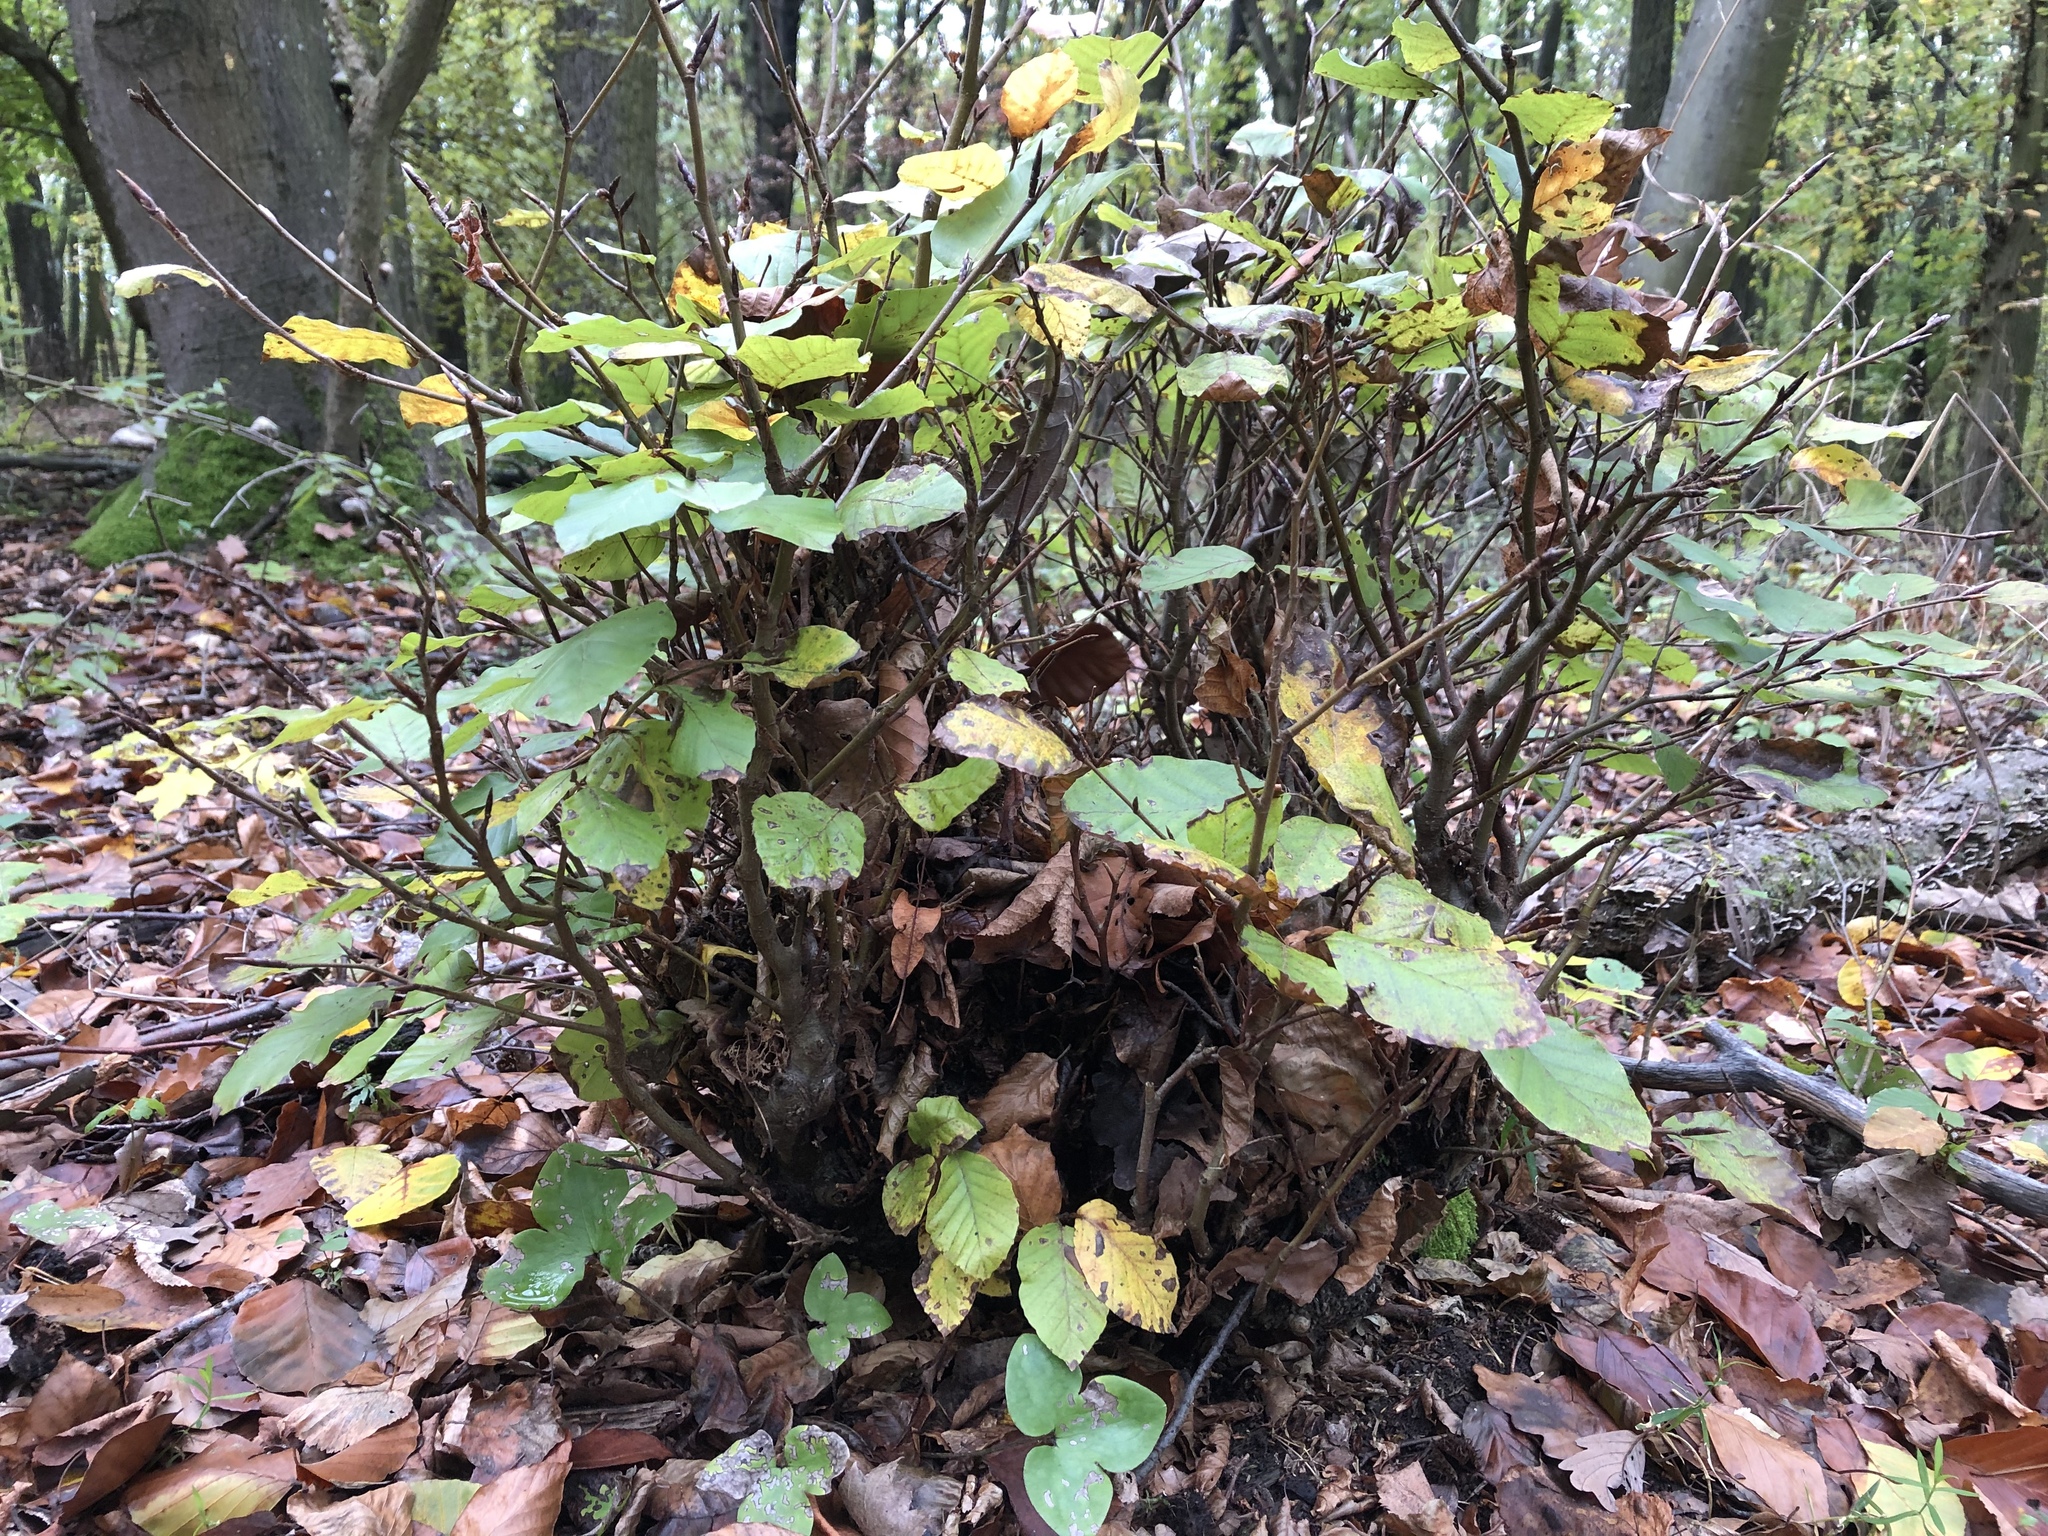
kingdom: Plantae
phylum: Tracheophyta
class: Magnoliopsida
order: Fagales
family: Fagaceae
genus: Fagus
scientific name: Fagus sylvatica
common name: Beech
